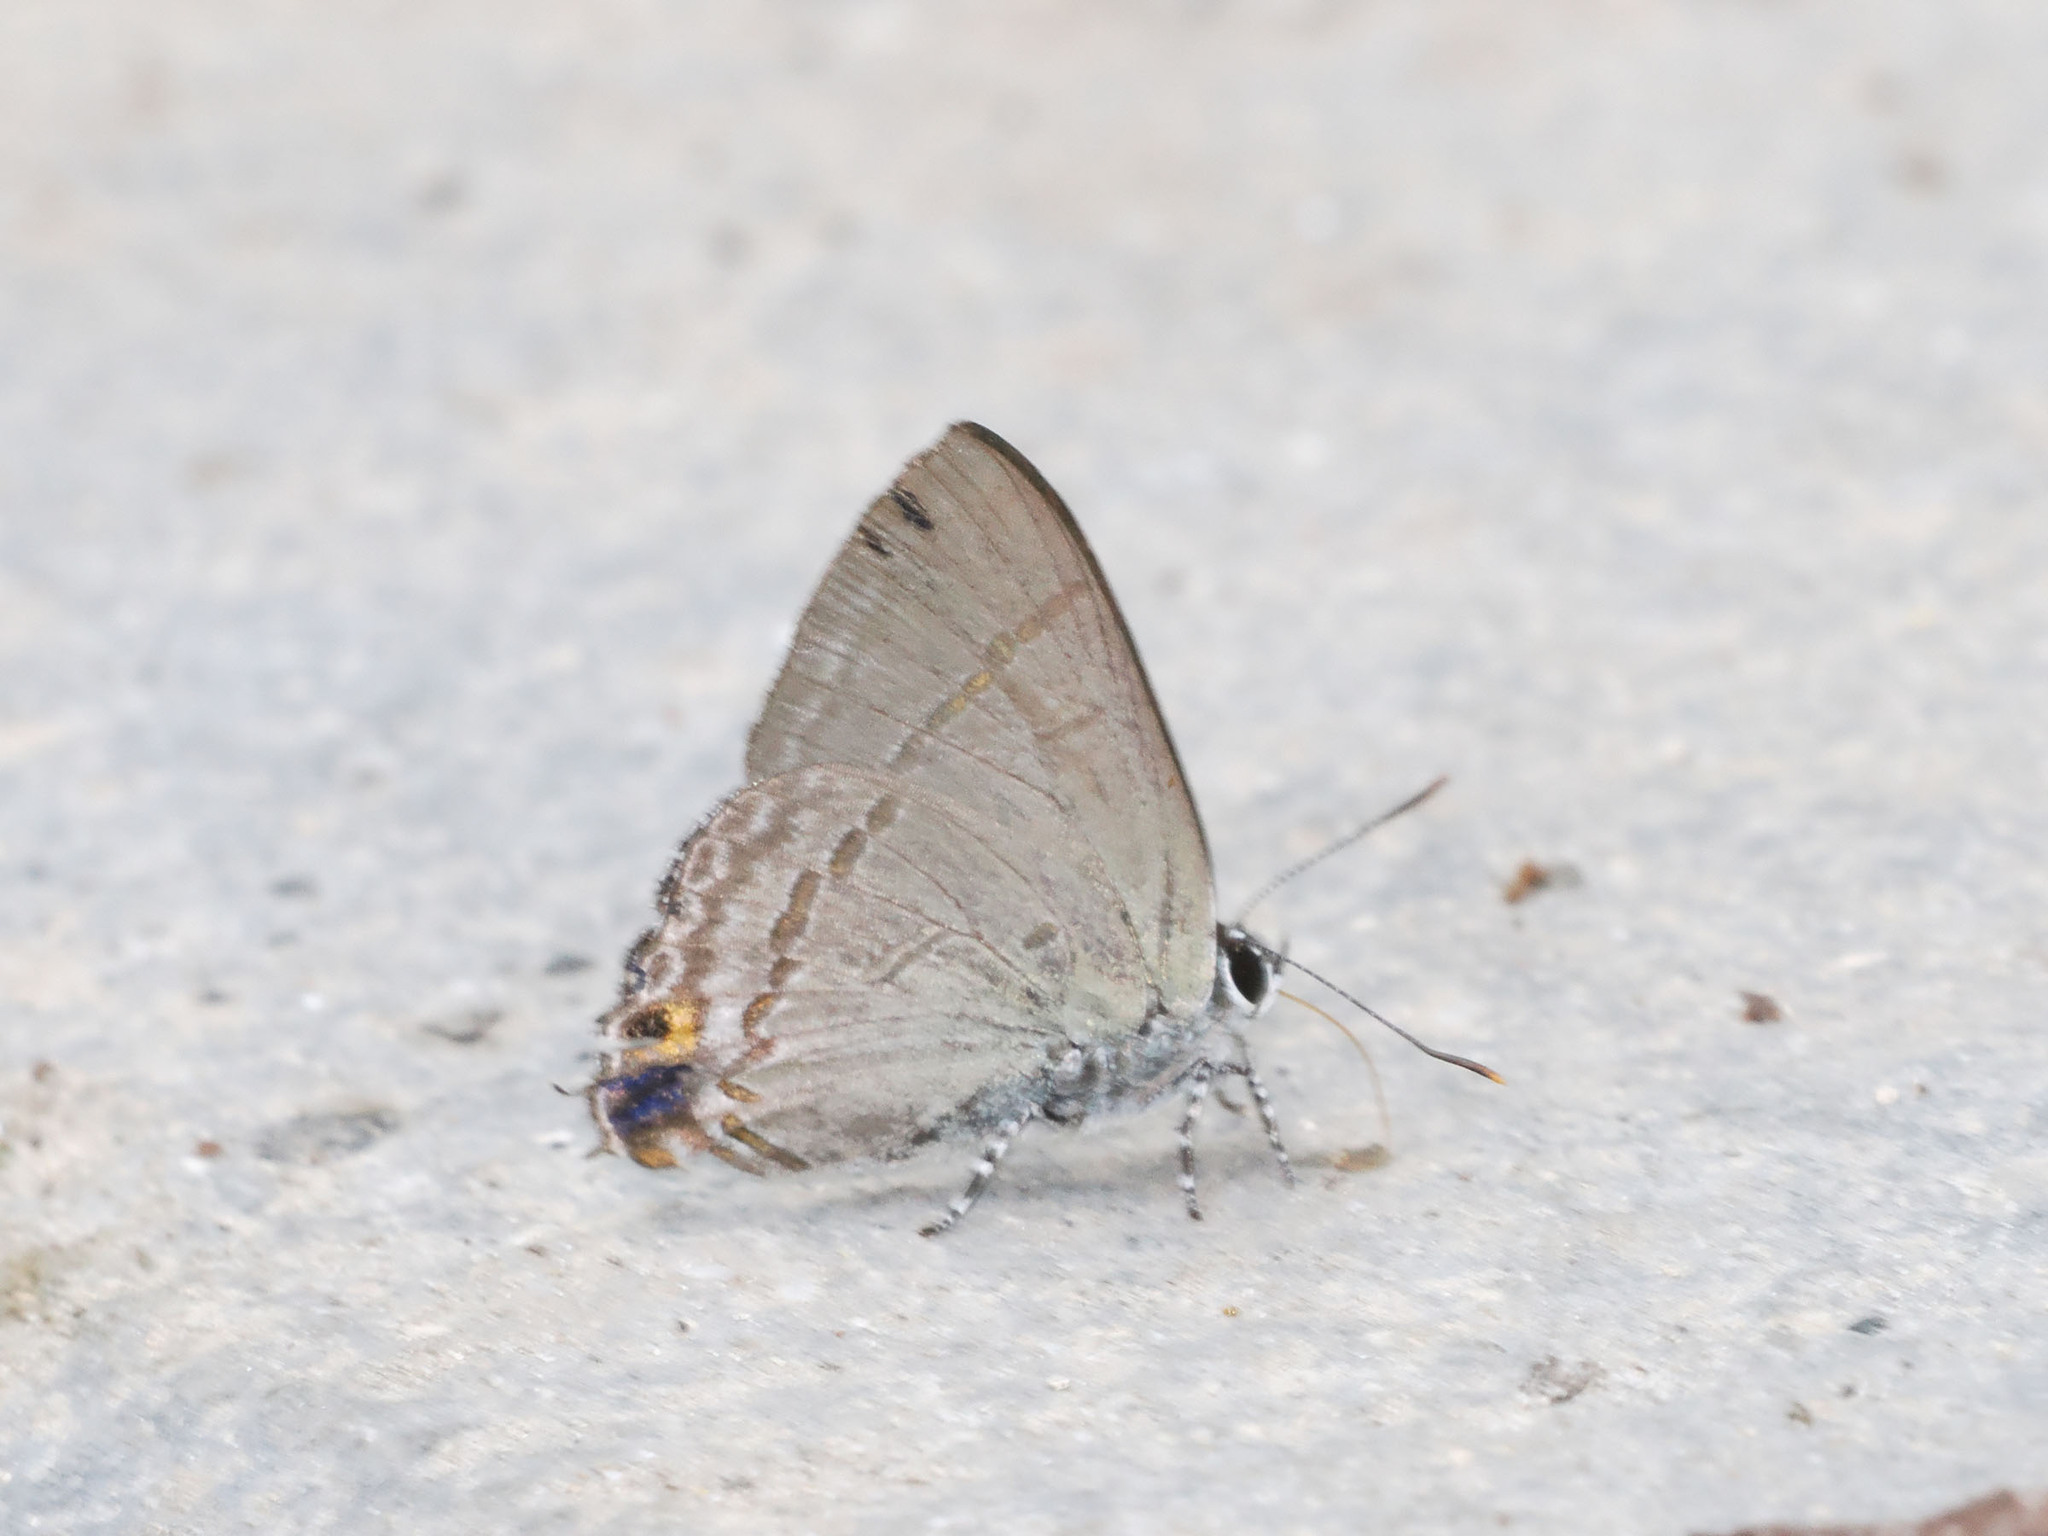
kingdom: Animalia
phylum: Arthropoda
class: Insecta
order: Lepidoptera
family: Lycaenidae
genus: Hypolycaena
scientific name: Hypolycaena erylus
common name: Common tit
